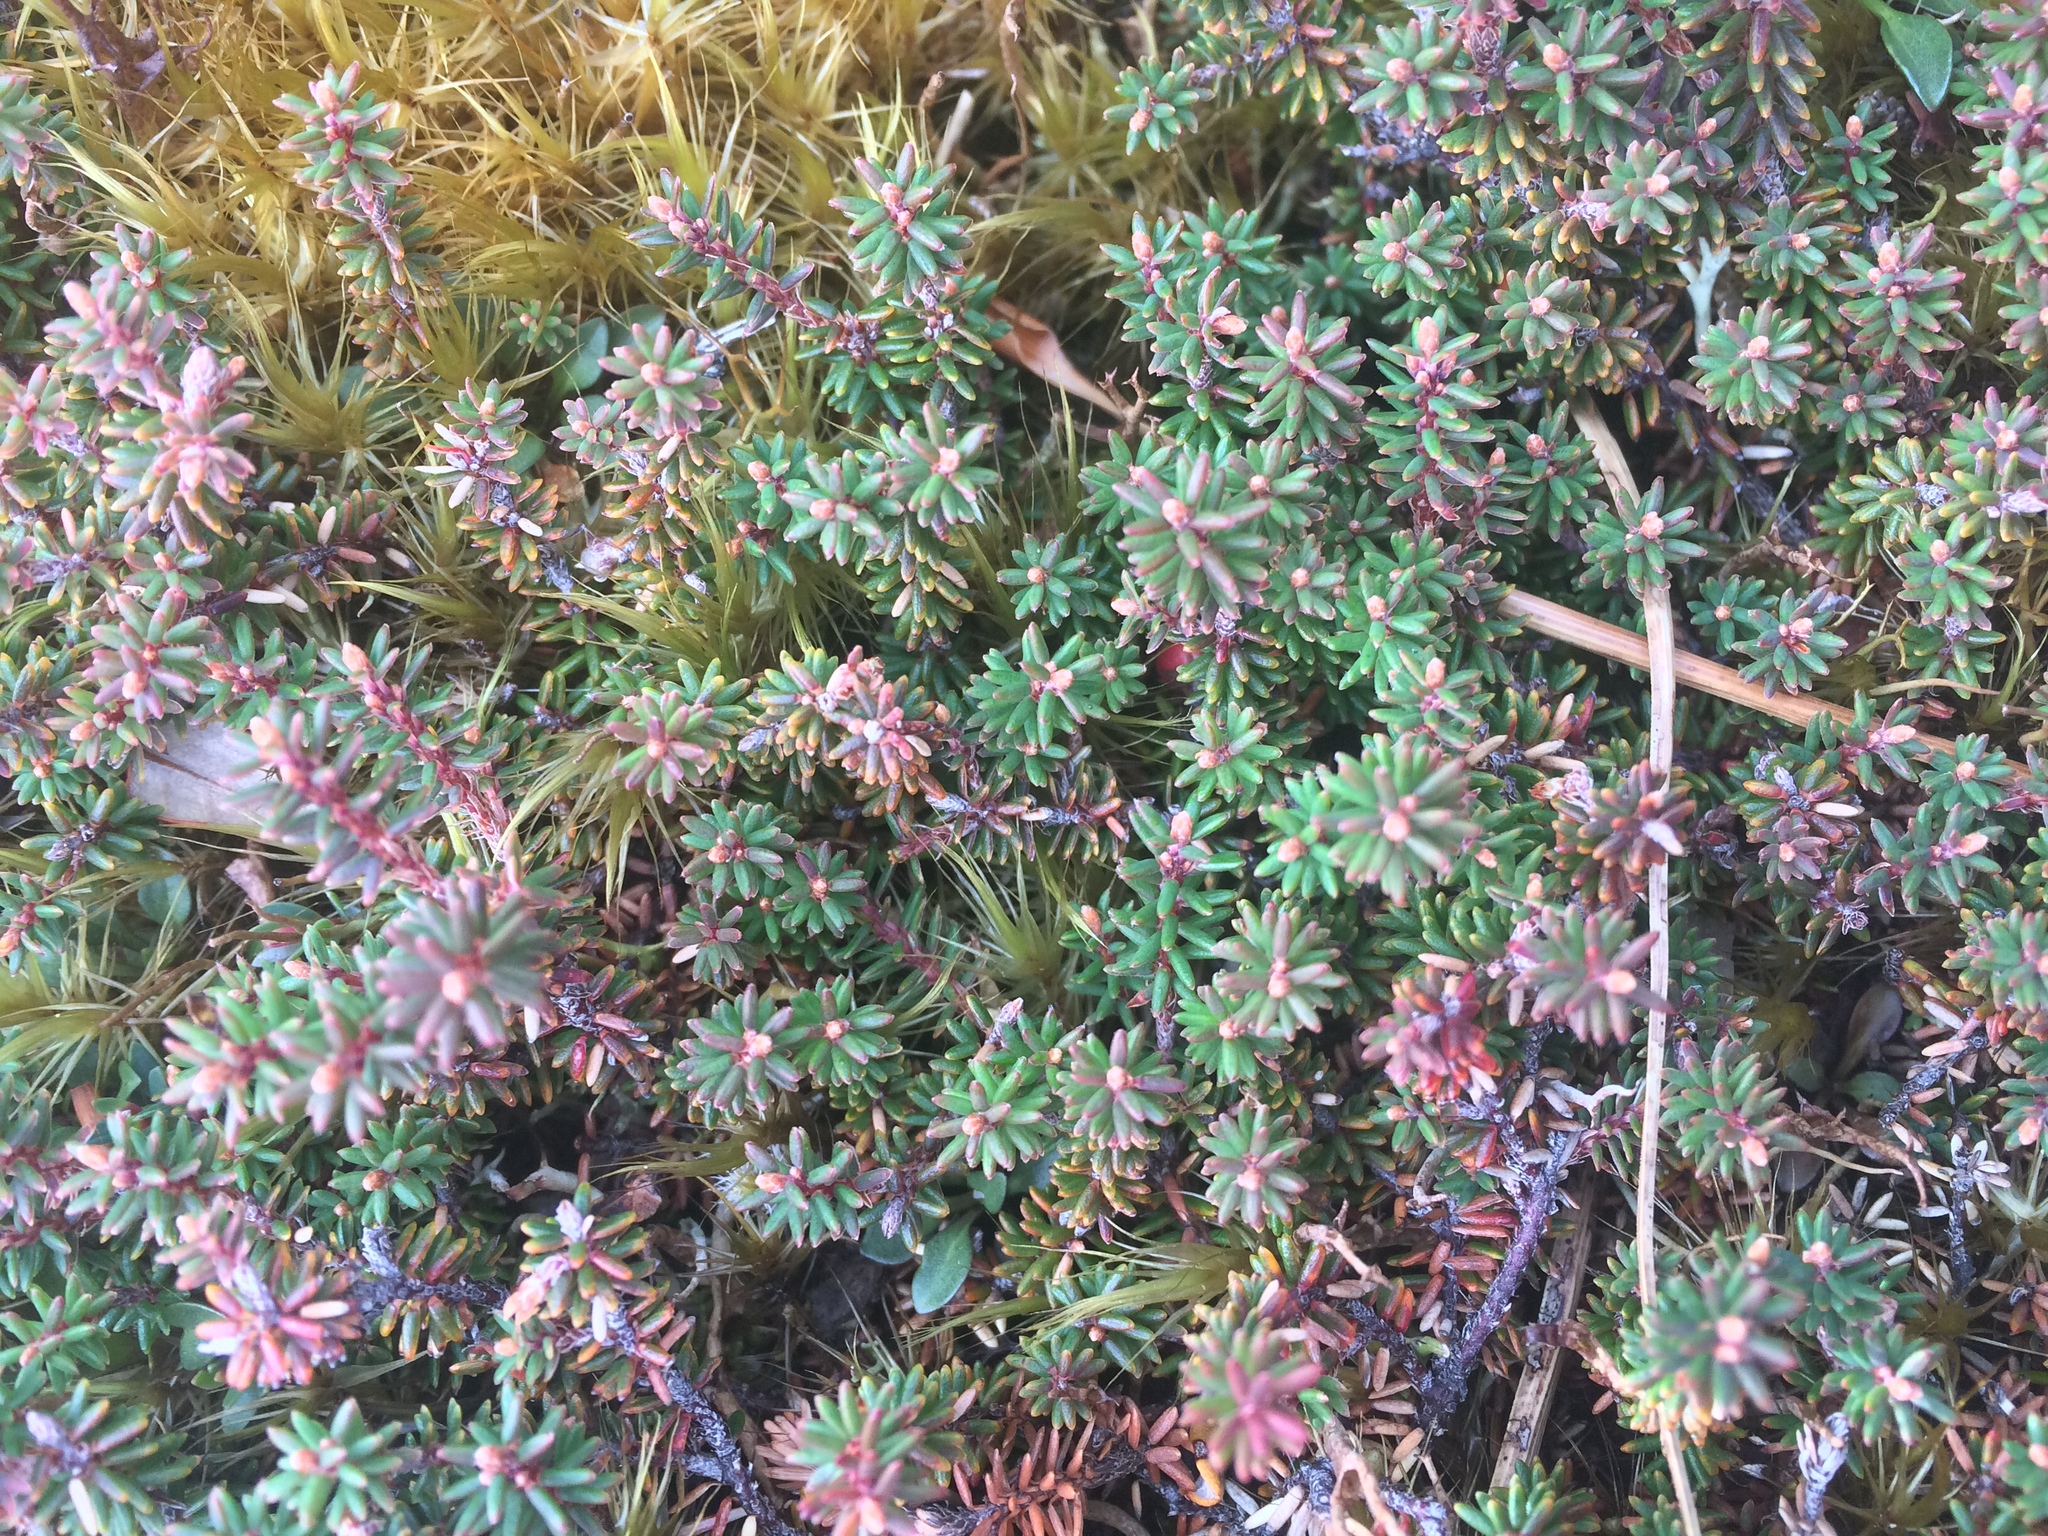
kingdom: Plantae
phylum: Tracheophyta
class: Magnoliopsida
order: Ericales
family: Ericaceae
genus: Androstoma
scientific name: Androstoma empetrifolia
